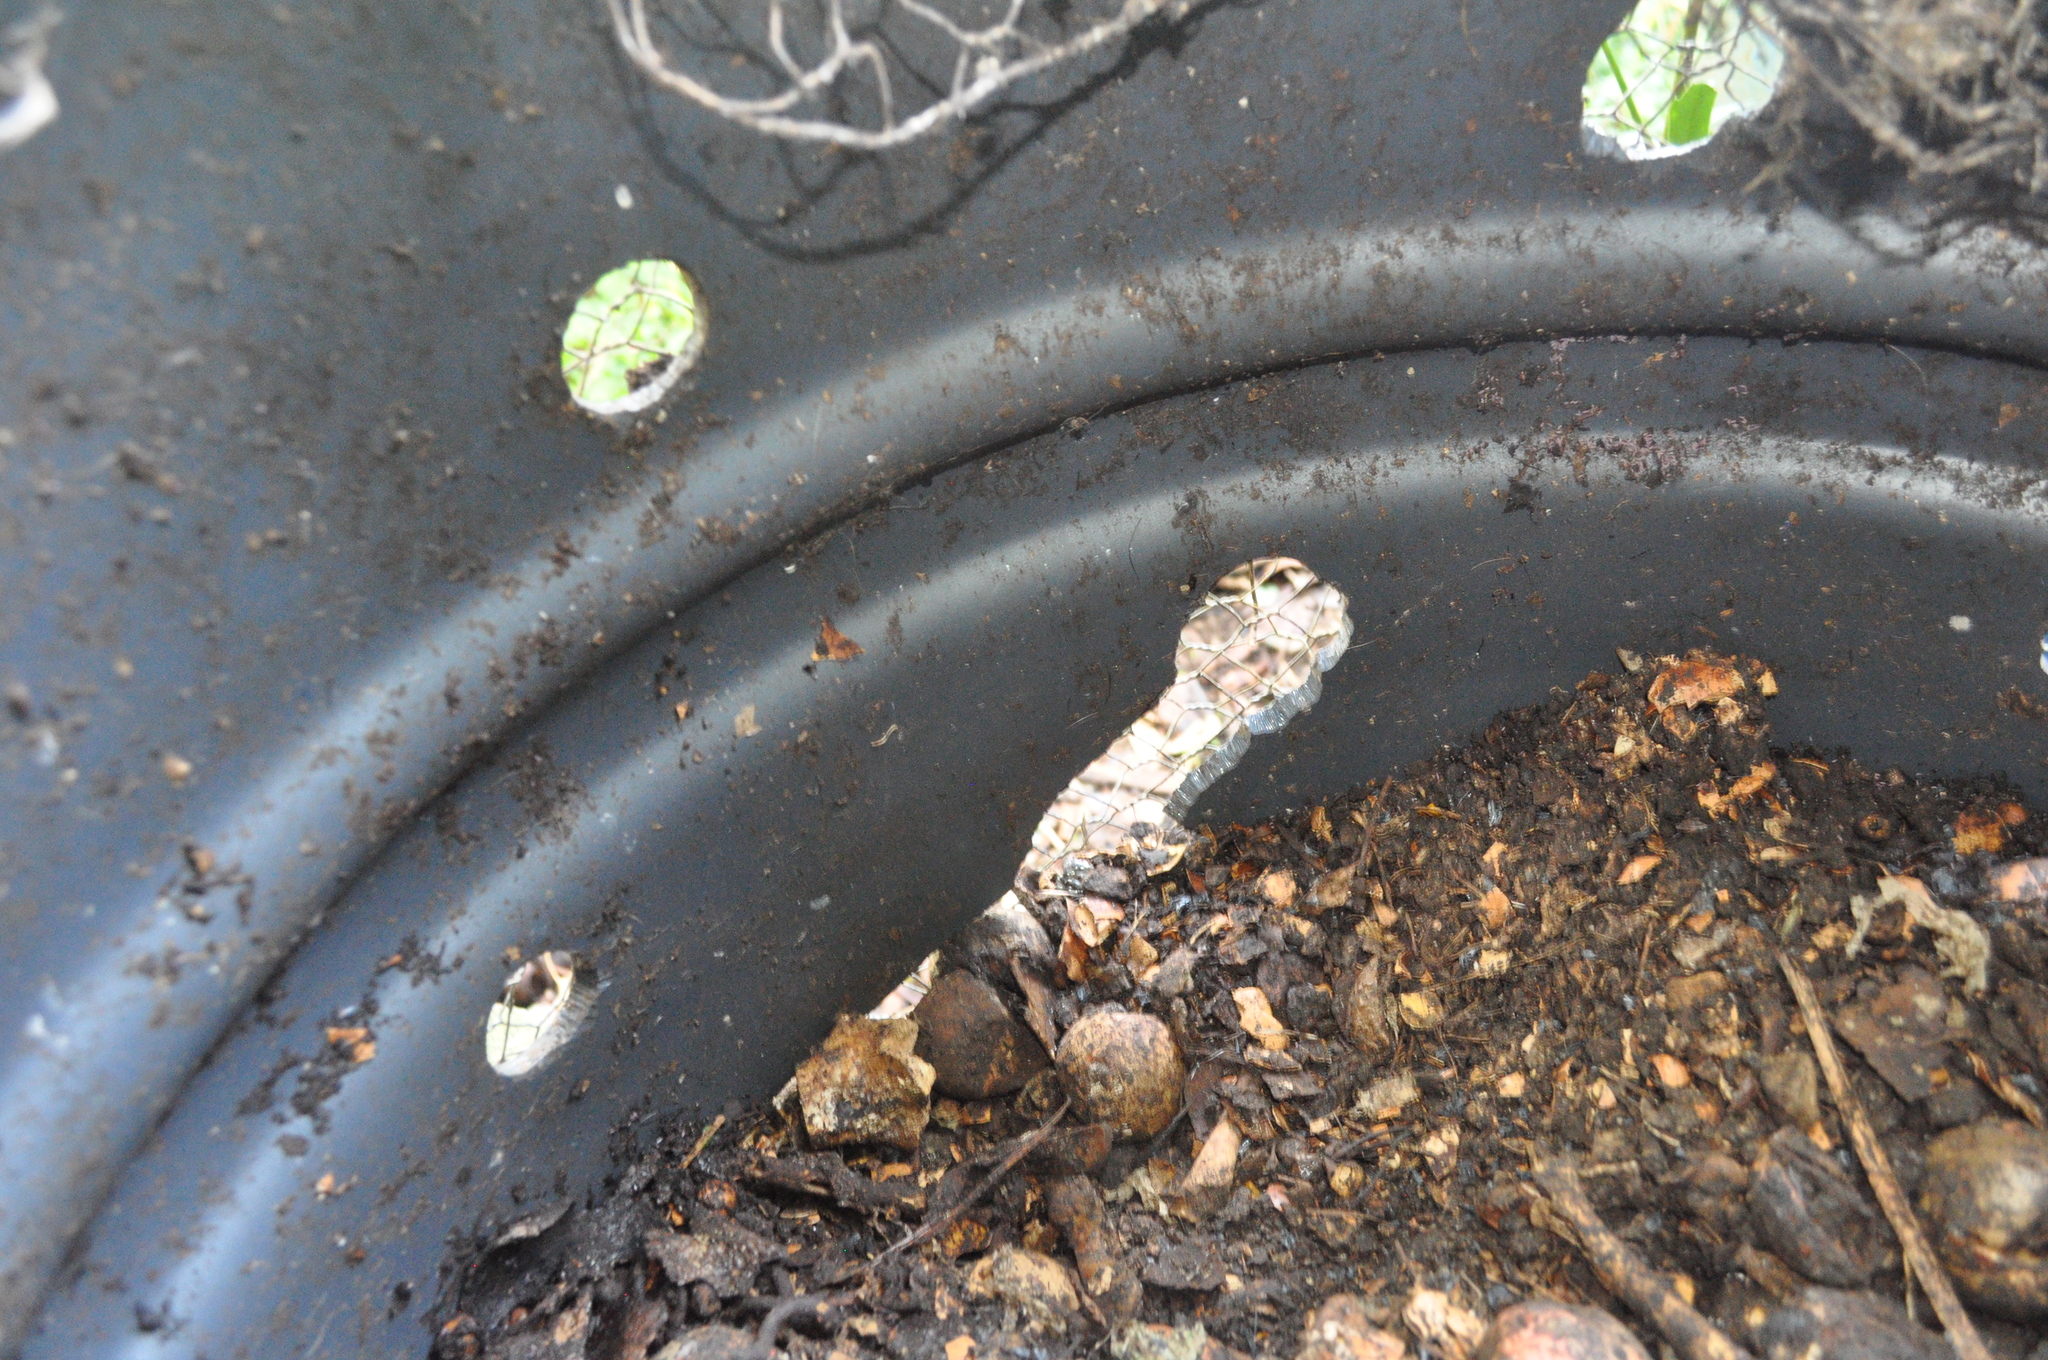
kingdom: Animalia
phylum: Chordata
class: Mammalia
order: Rodentia
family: Muridae
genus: Rattus
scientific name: Rattus norvegicus
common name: Brown rat
